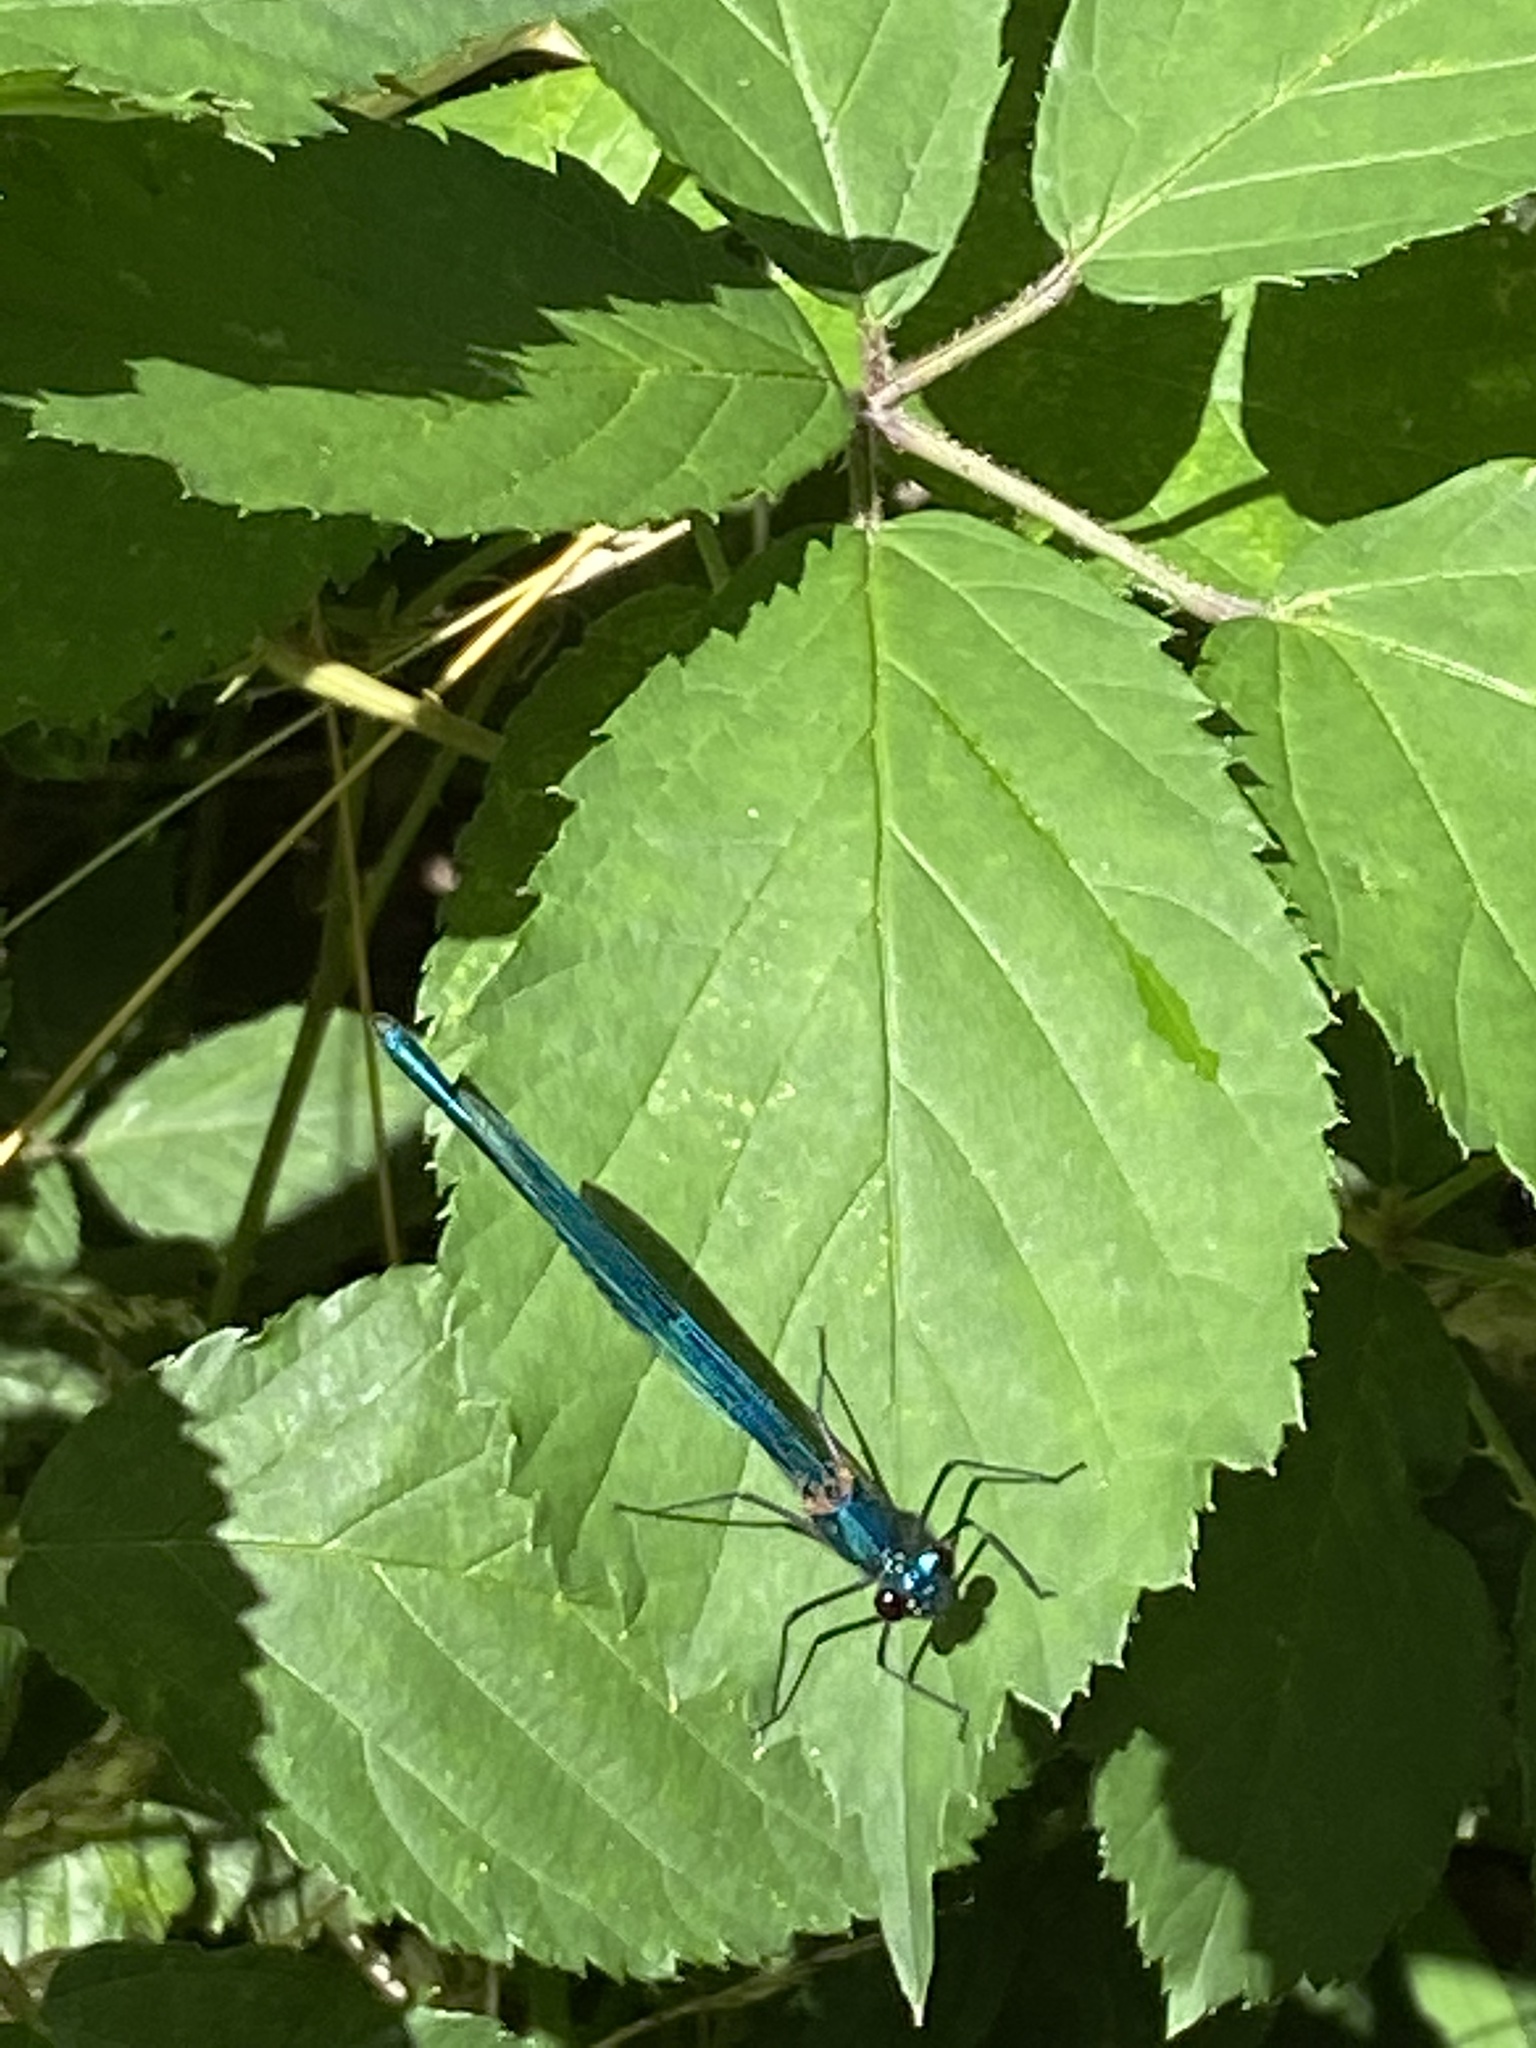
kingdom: Animalia
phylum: Arthropoda
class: Insecta
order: Odonata
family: Calopterygidae
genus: Calopteryx
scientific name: Calopteryx splendens
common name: Banded demoiselle
